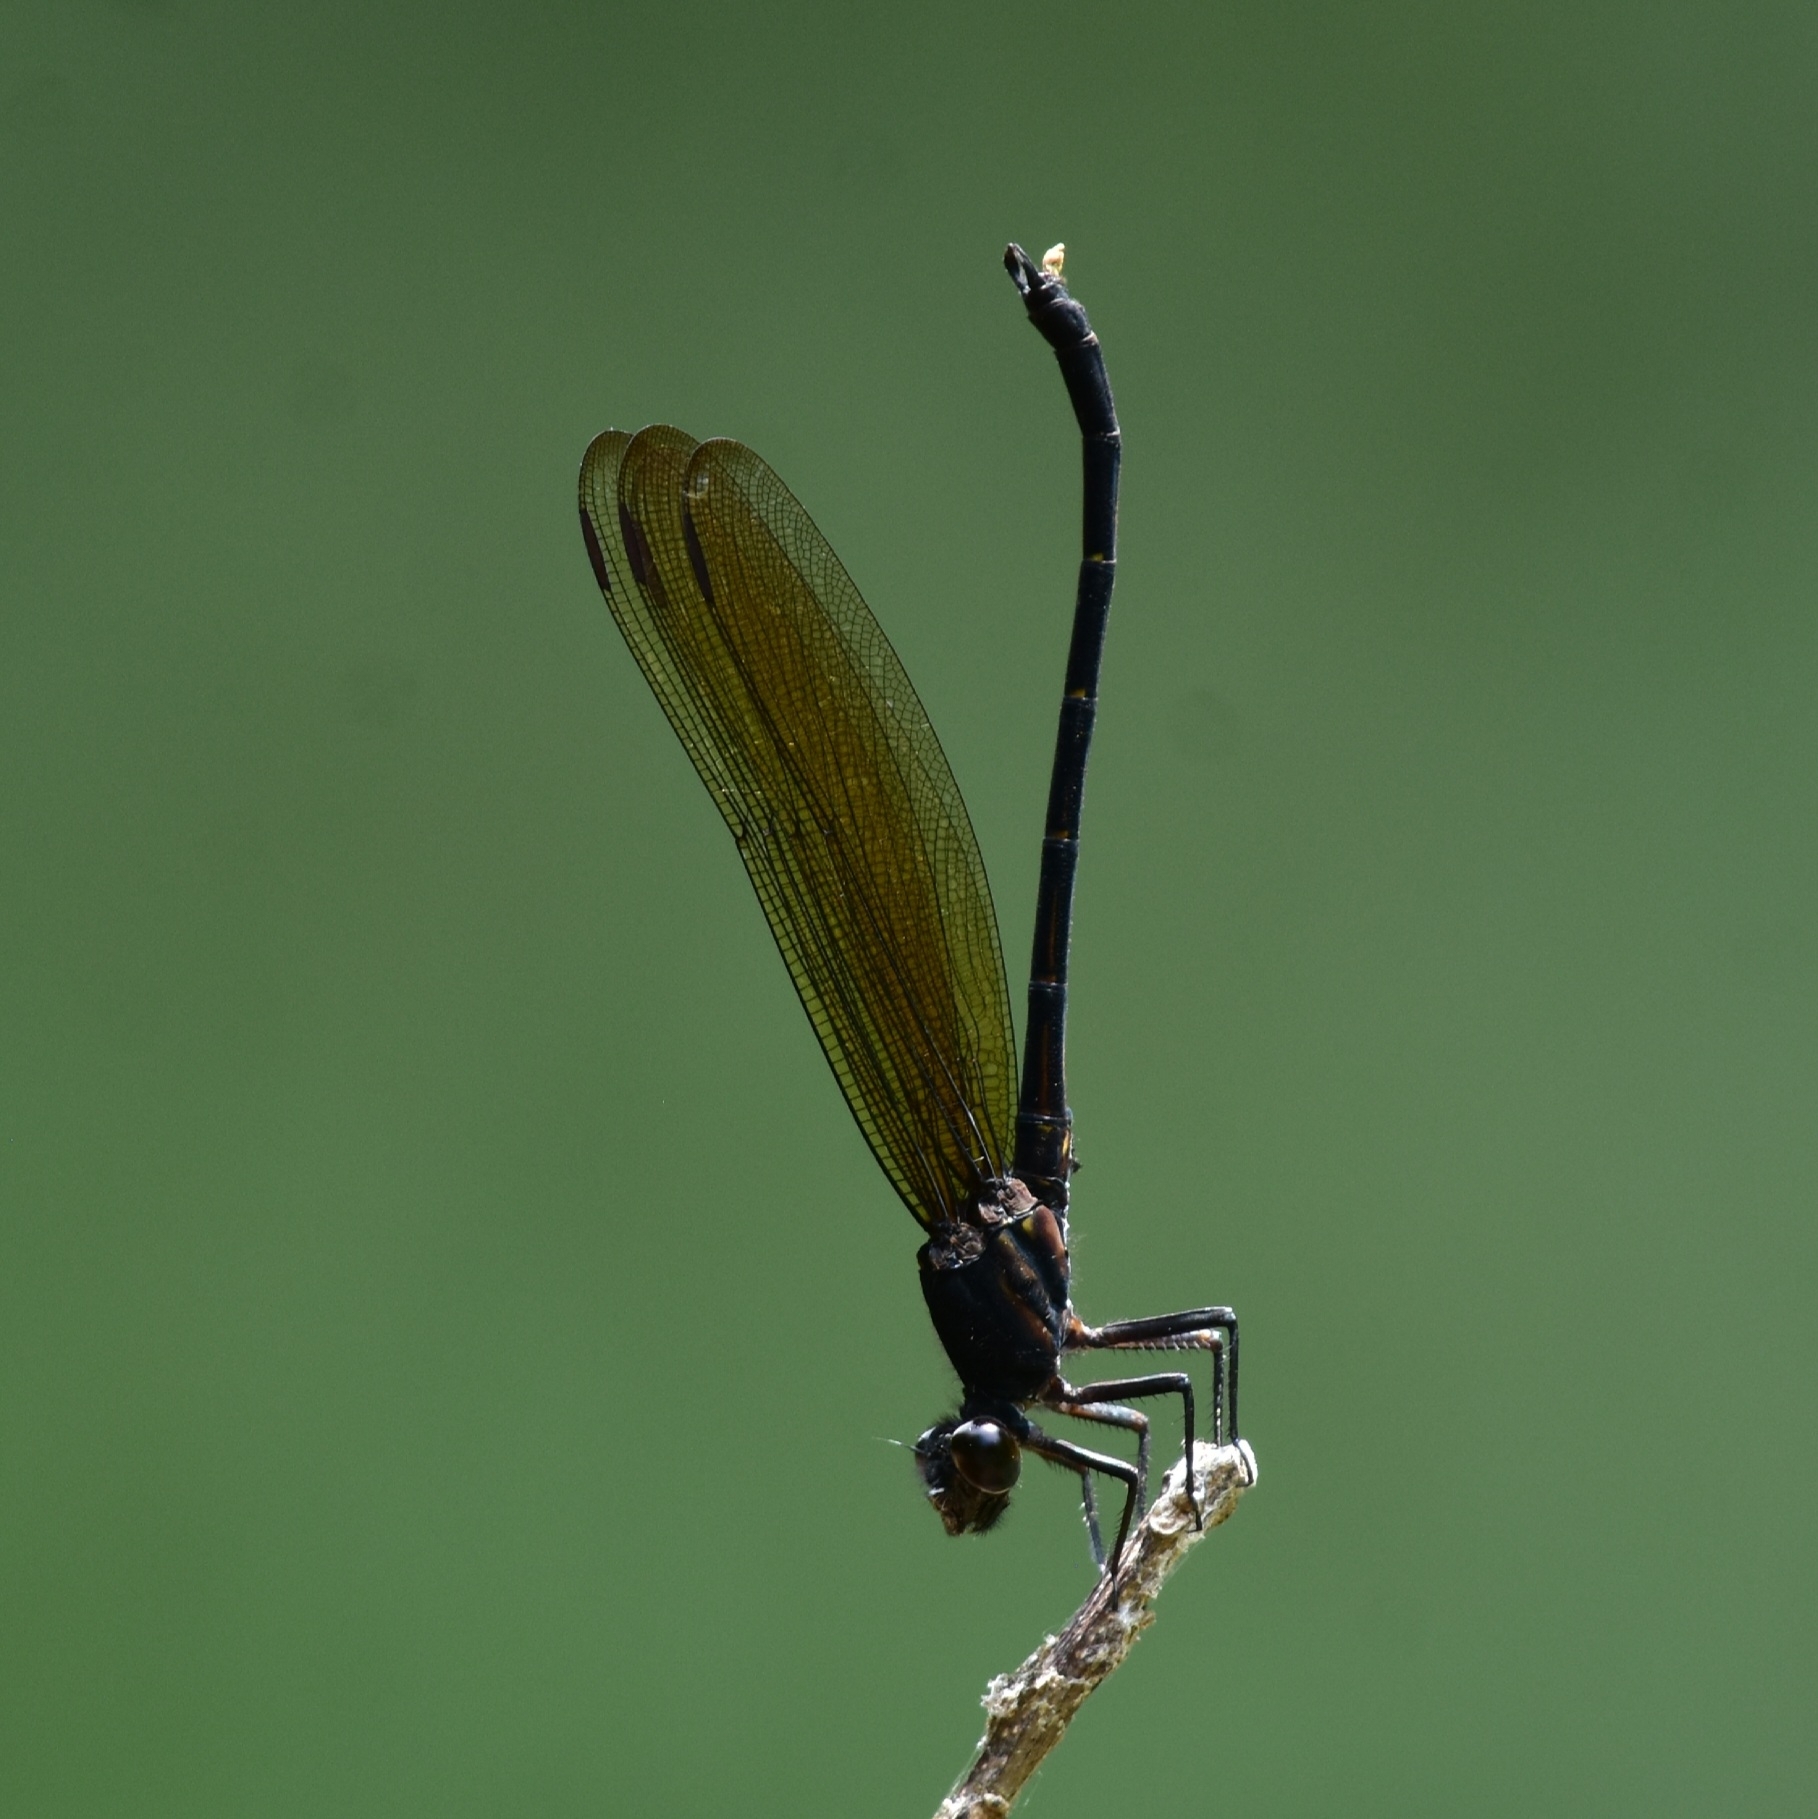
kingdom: Animalia
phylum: Arthropoda
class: Insecta
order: Odonata
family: Euphaeidae
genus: Dysphaea
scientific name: Dysphaea ethela
